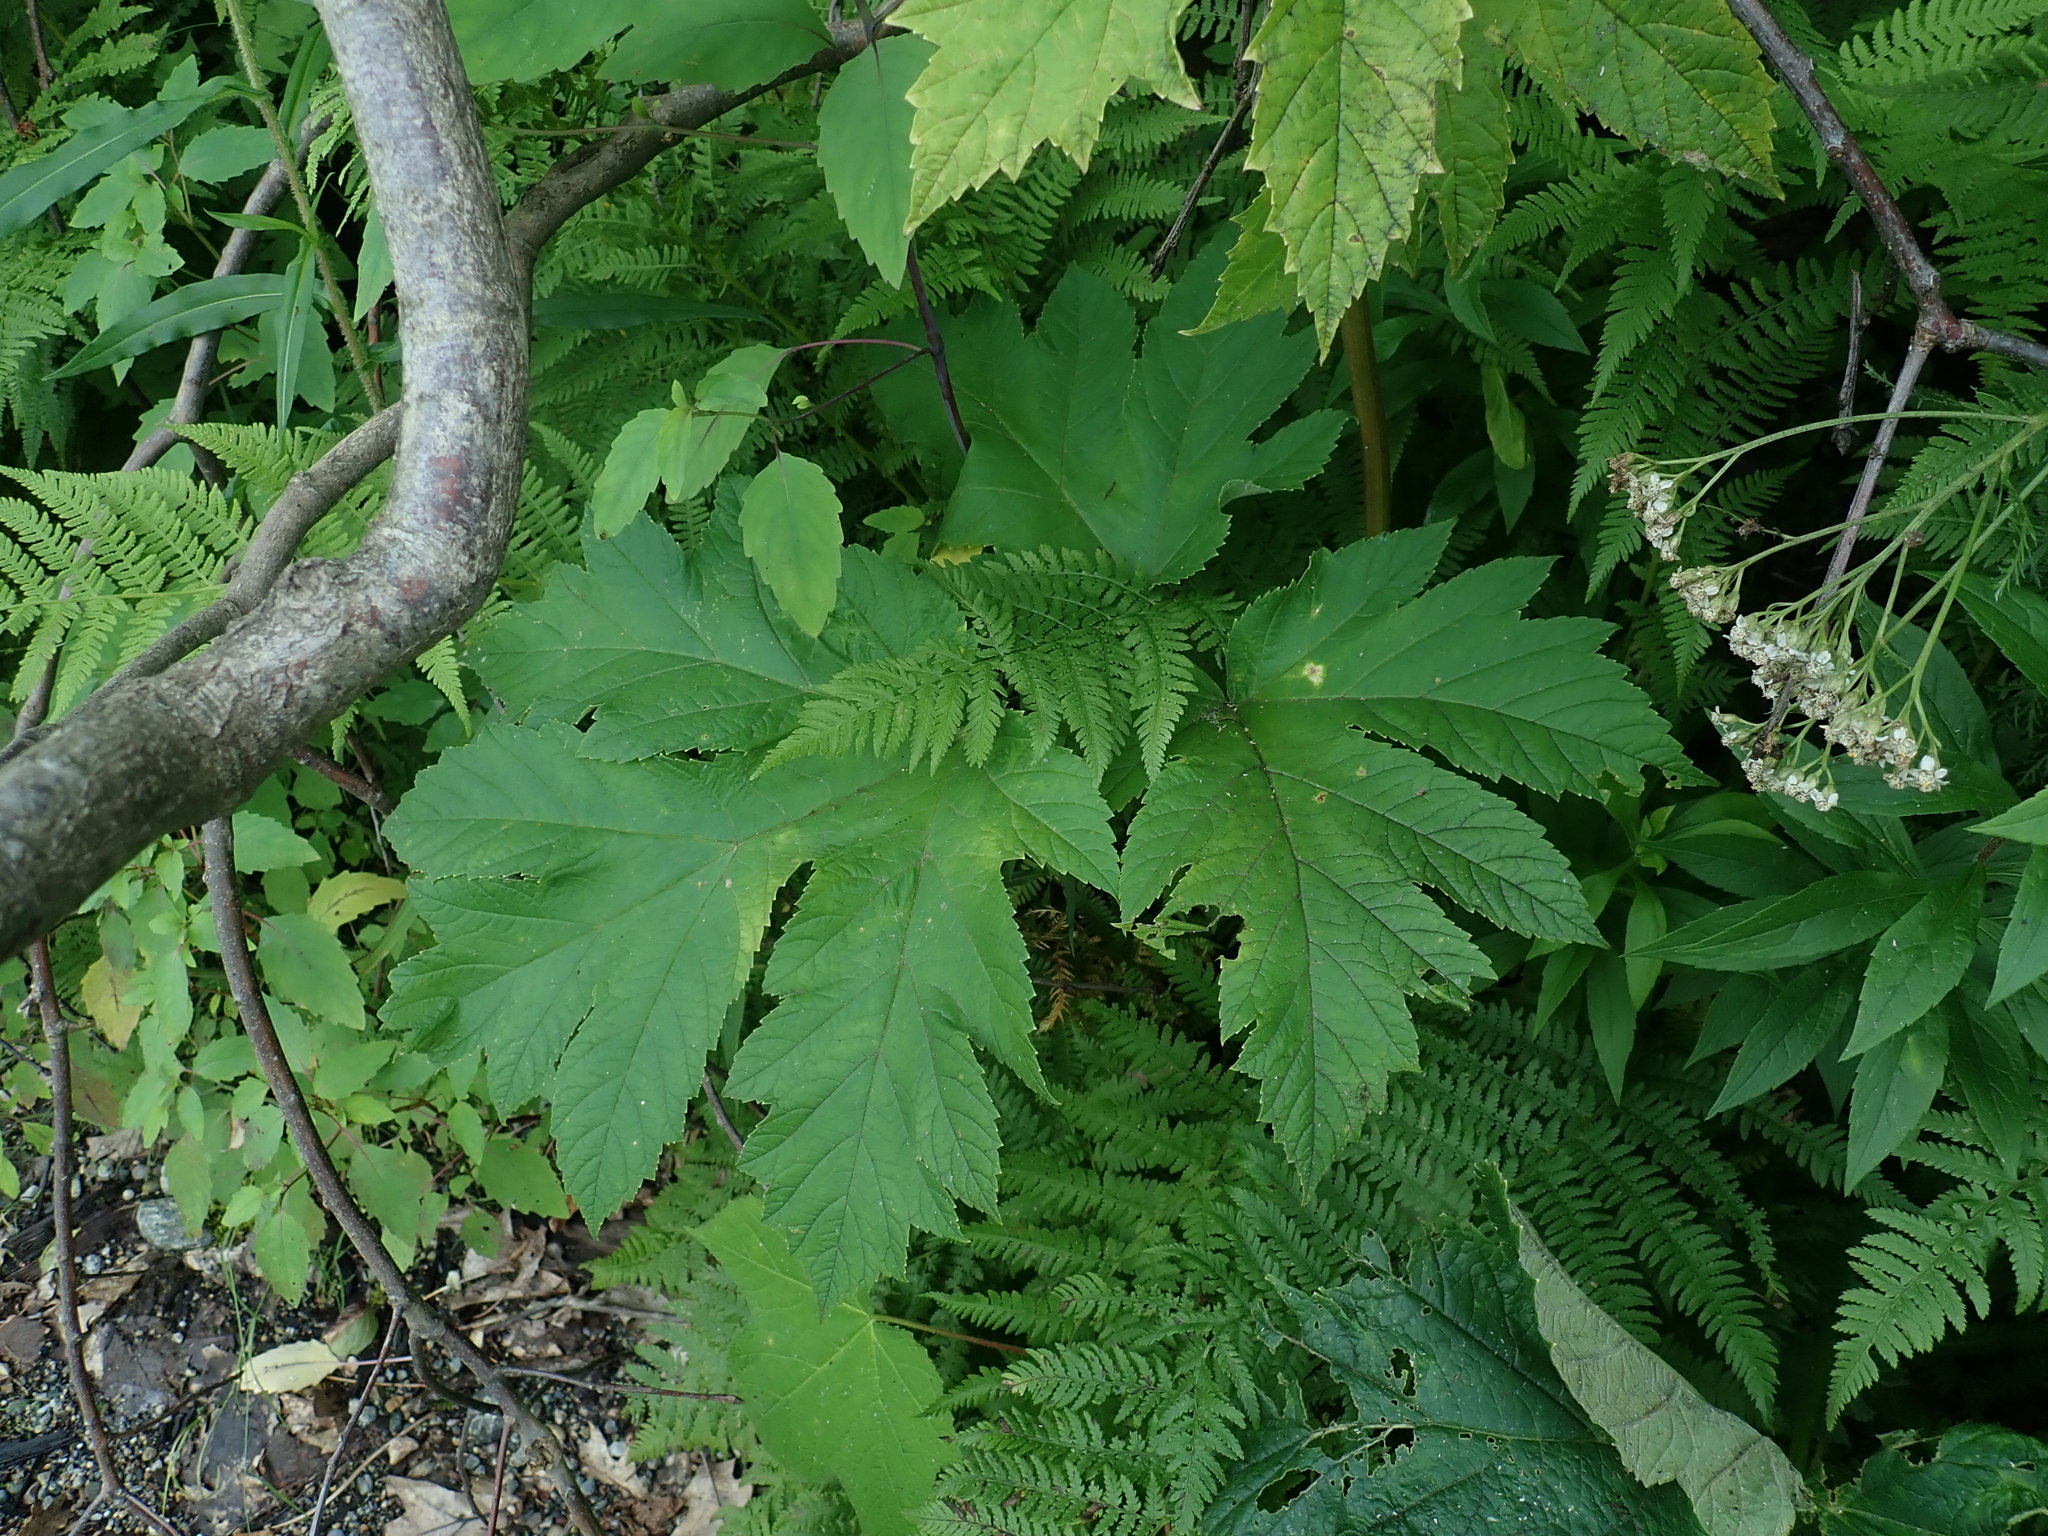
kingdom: Plantae
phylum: Tracheophyta
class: Magnoliopsida
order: Apiales
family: Apiaceae
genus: Heracleum
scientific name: Heracleum maximum
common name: American cow parsnip
